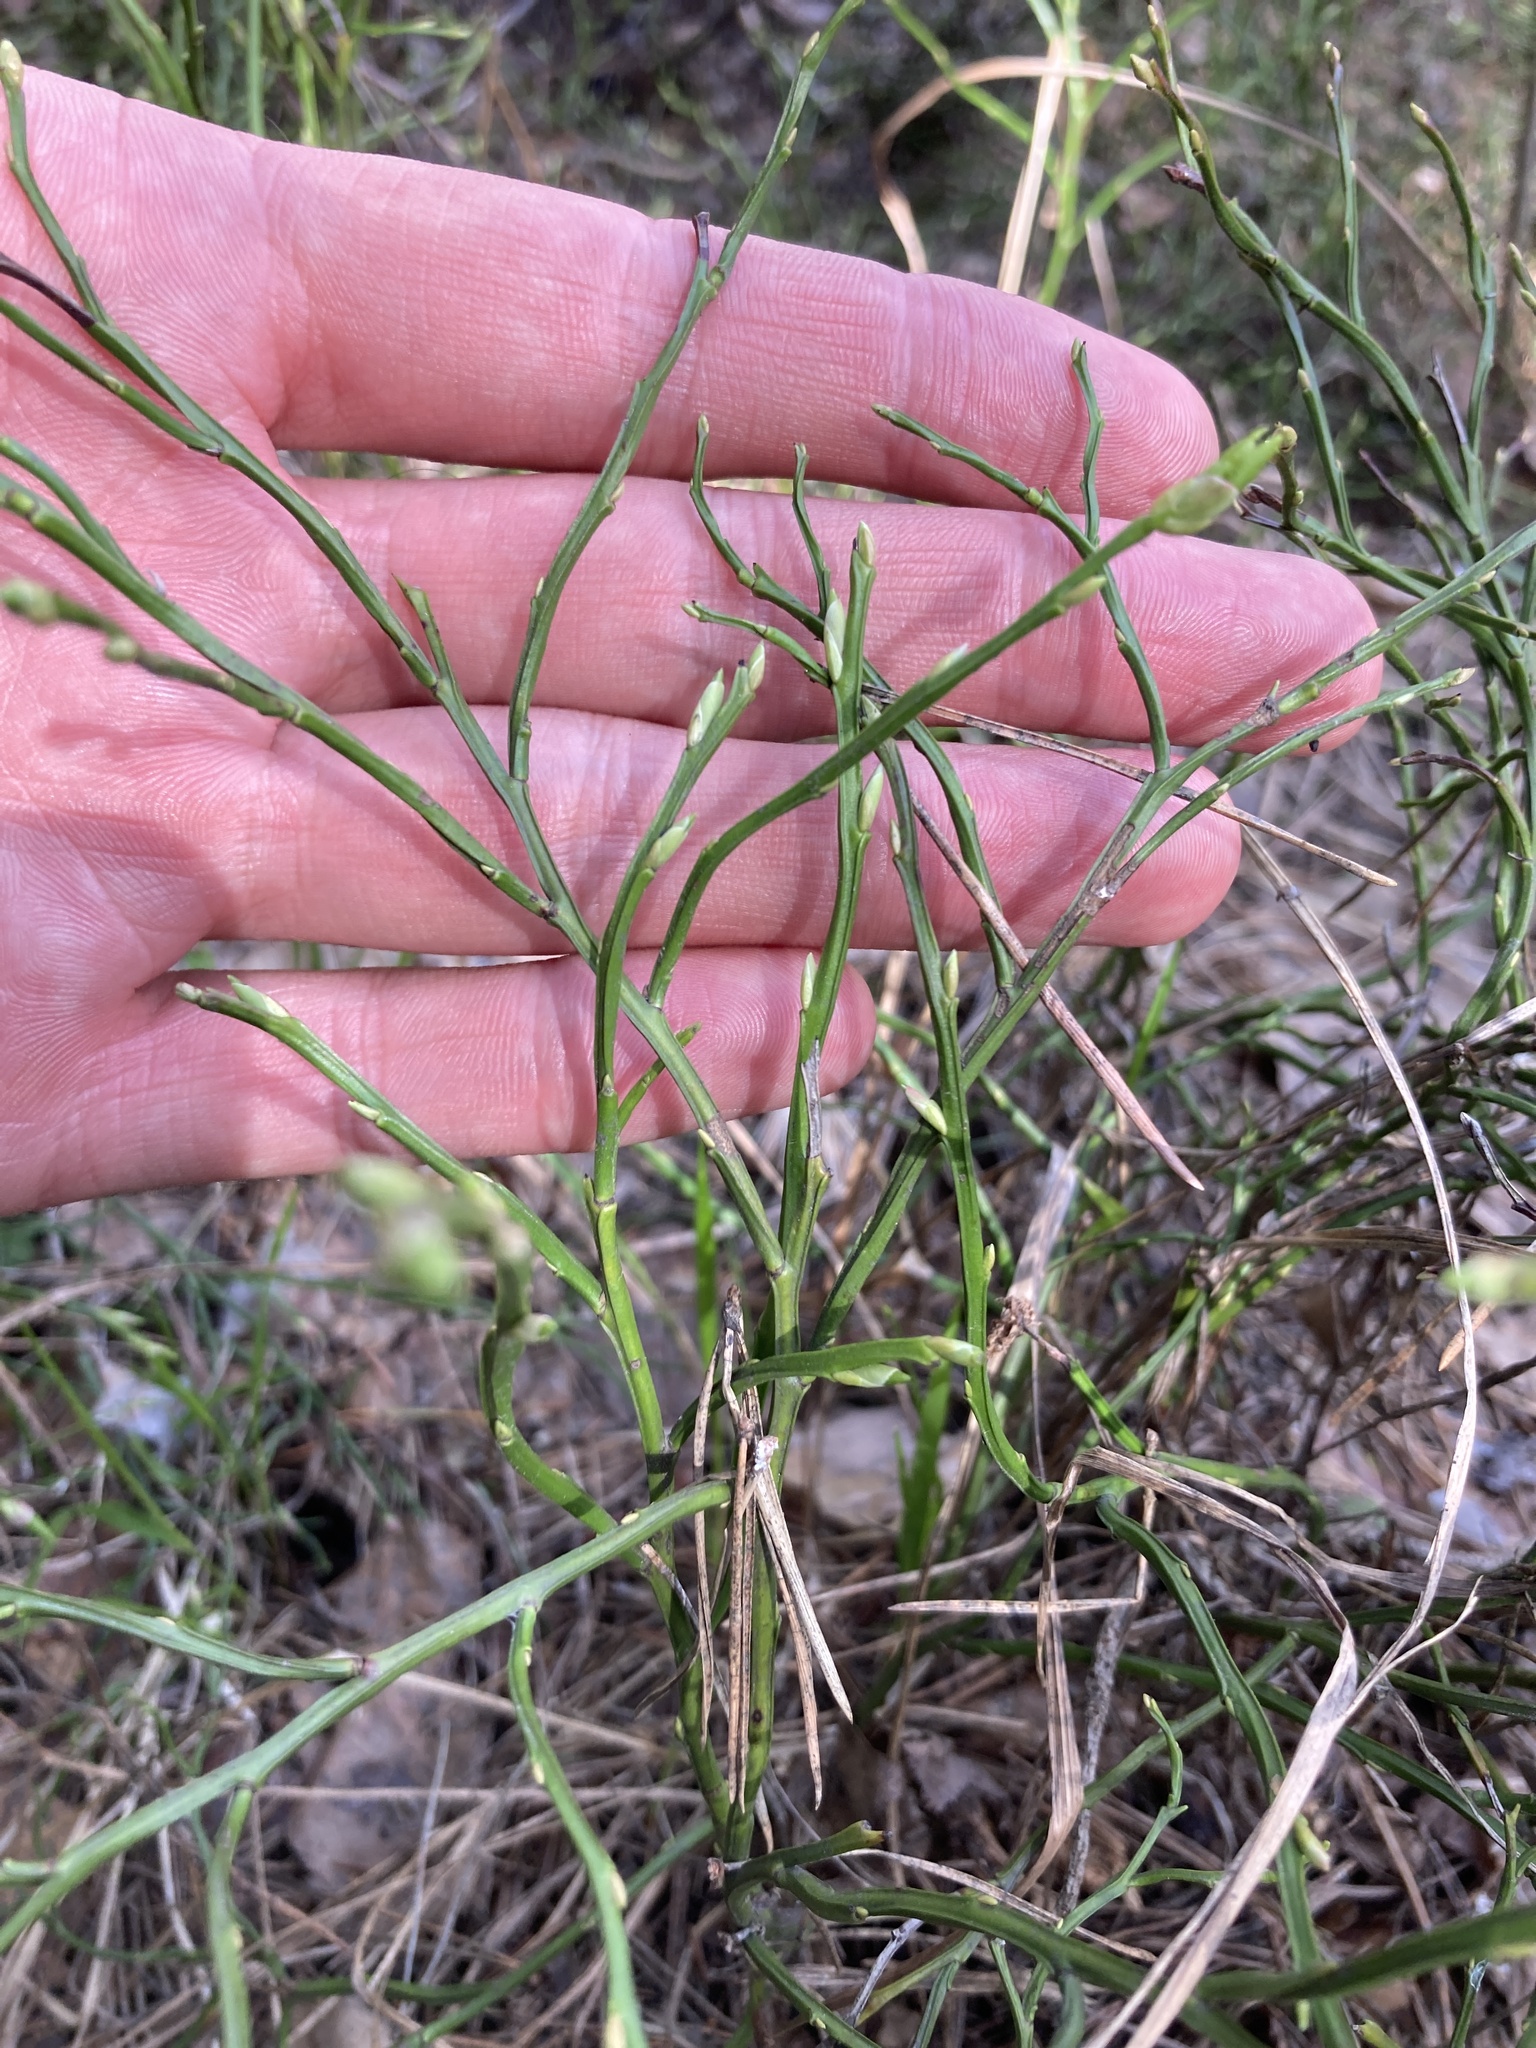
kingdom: Plantae
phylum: Tracheophyta
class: Magnoliopsida
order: Ericales
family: Ericaceae
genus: Vaccinium
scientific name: Vaccinium myrtillus
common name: Bilberry
